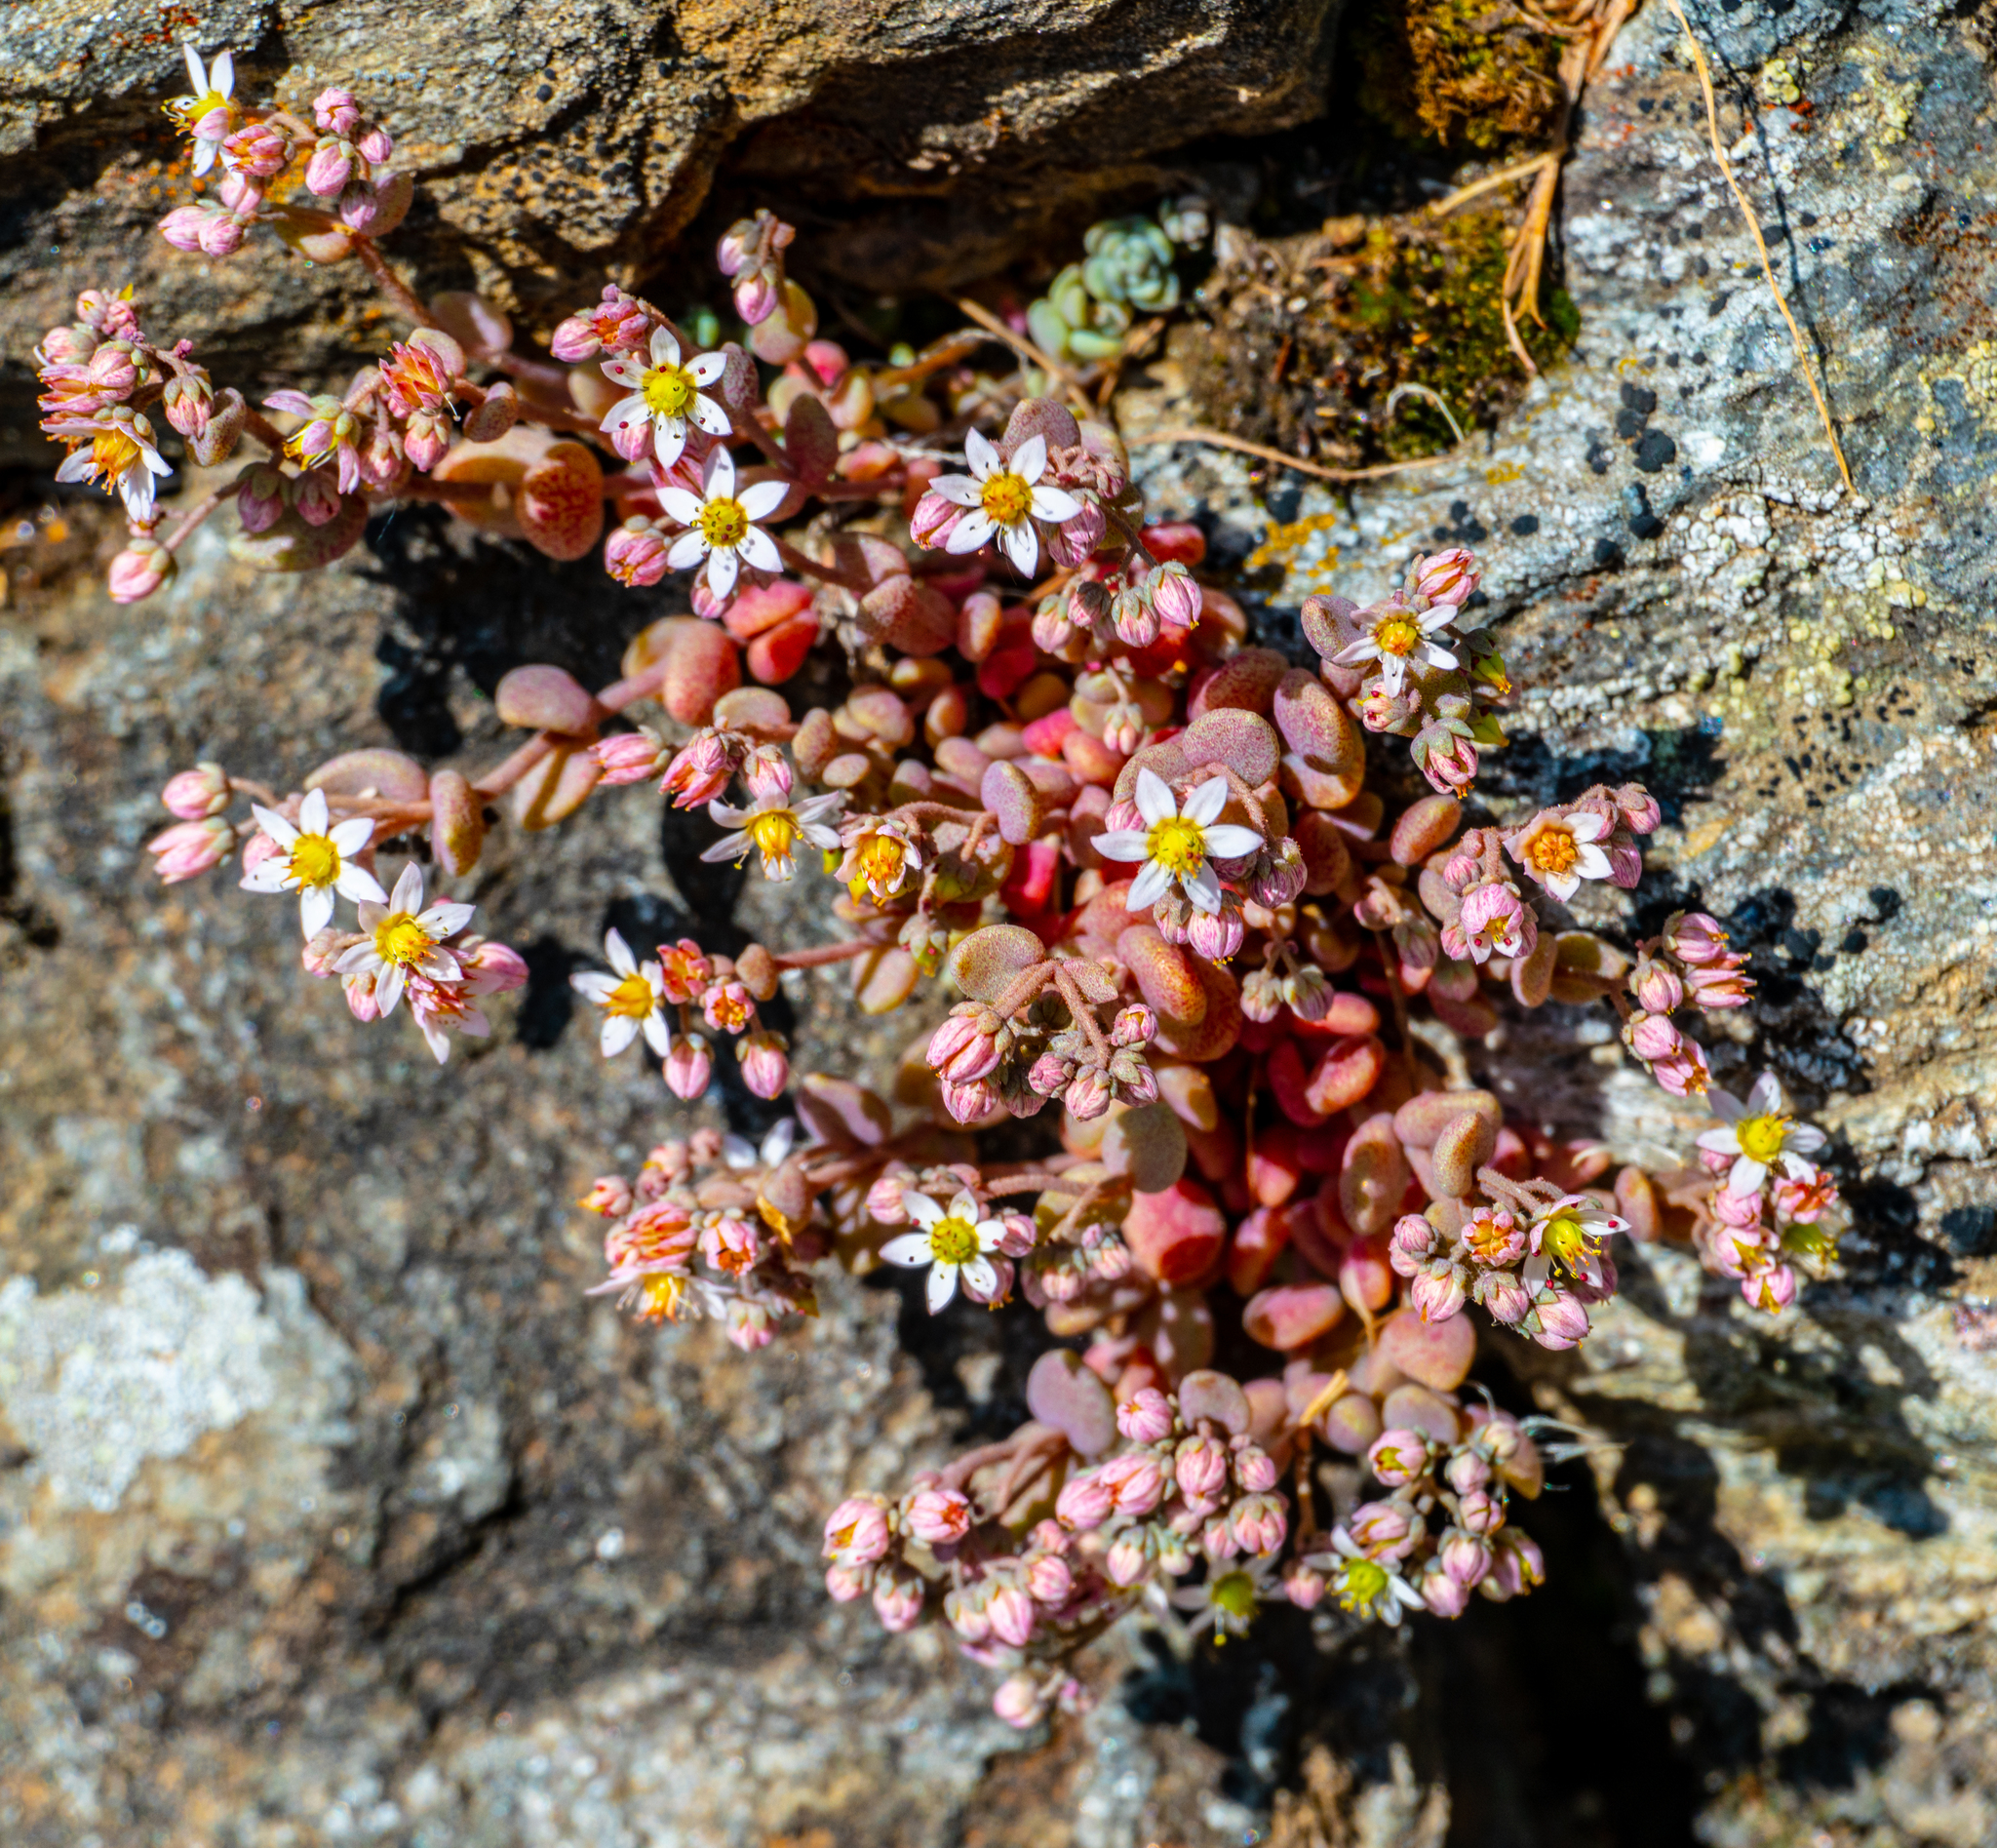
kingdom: Plantae
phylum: Tracheophyta
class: Magnoliopsida
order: Saxifragales
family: Crassulaceae
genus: Sedum
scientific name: Sedum dasyphyllum
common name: Thick-leaf stonecrop
